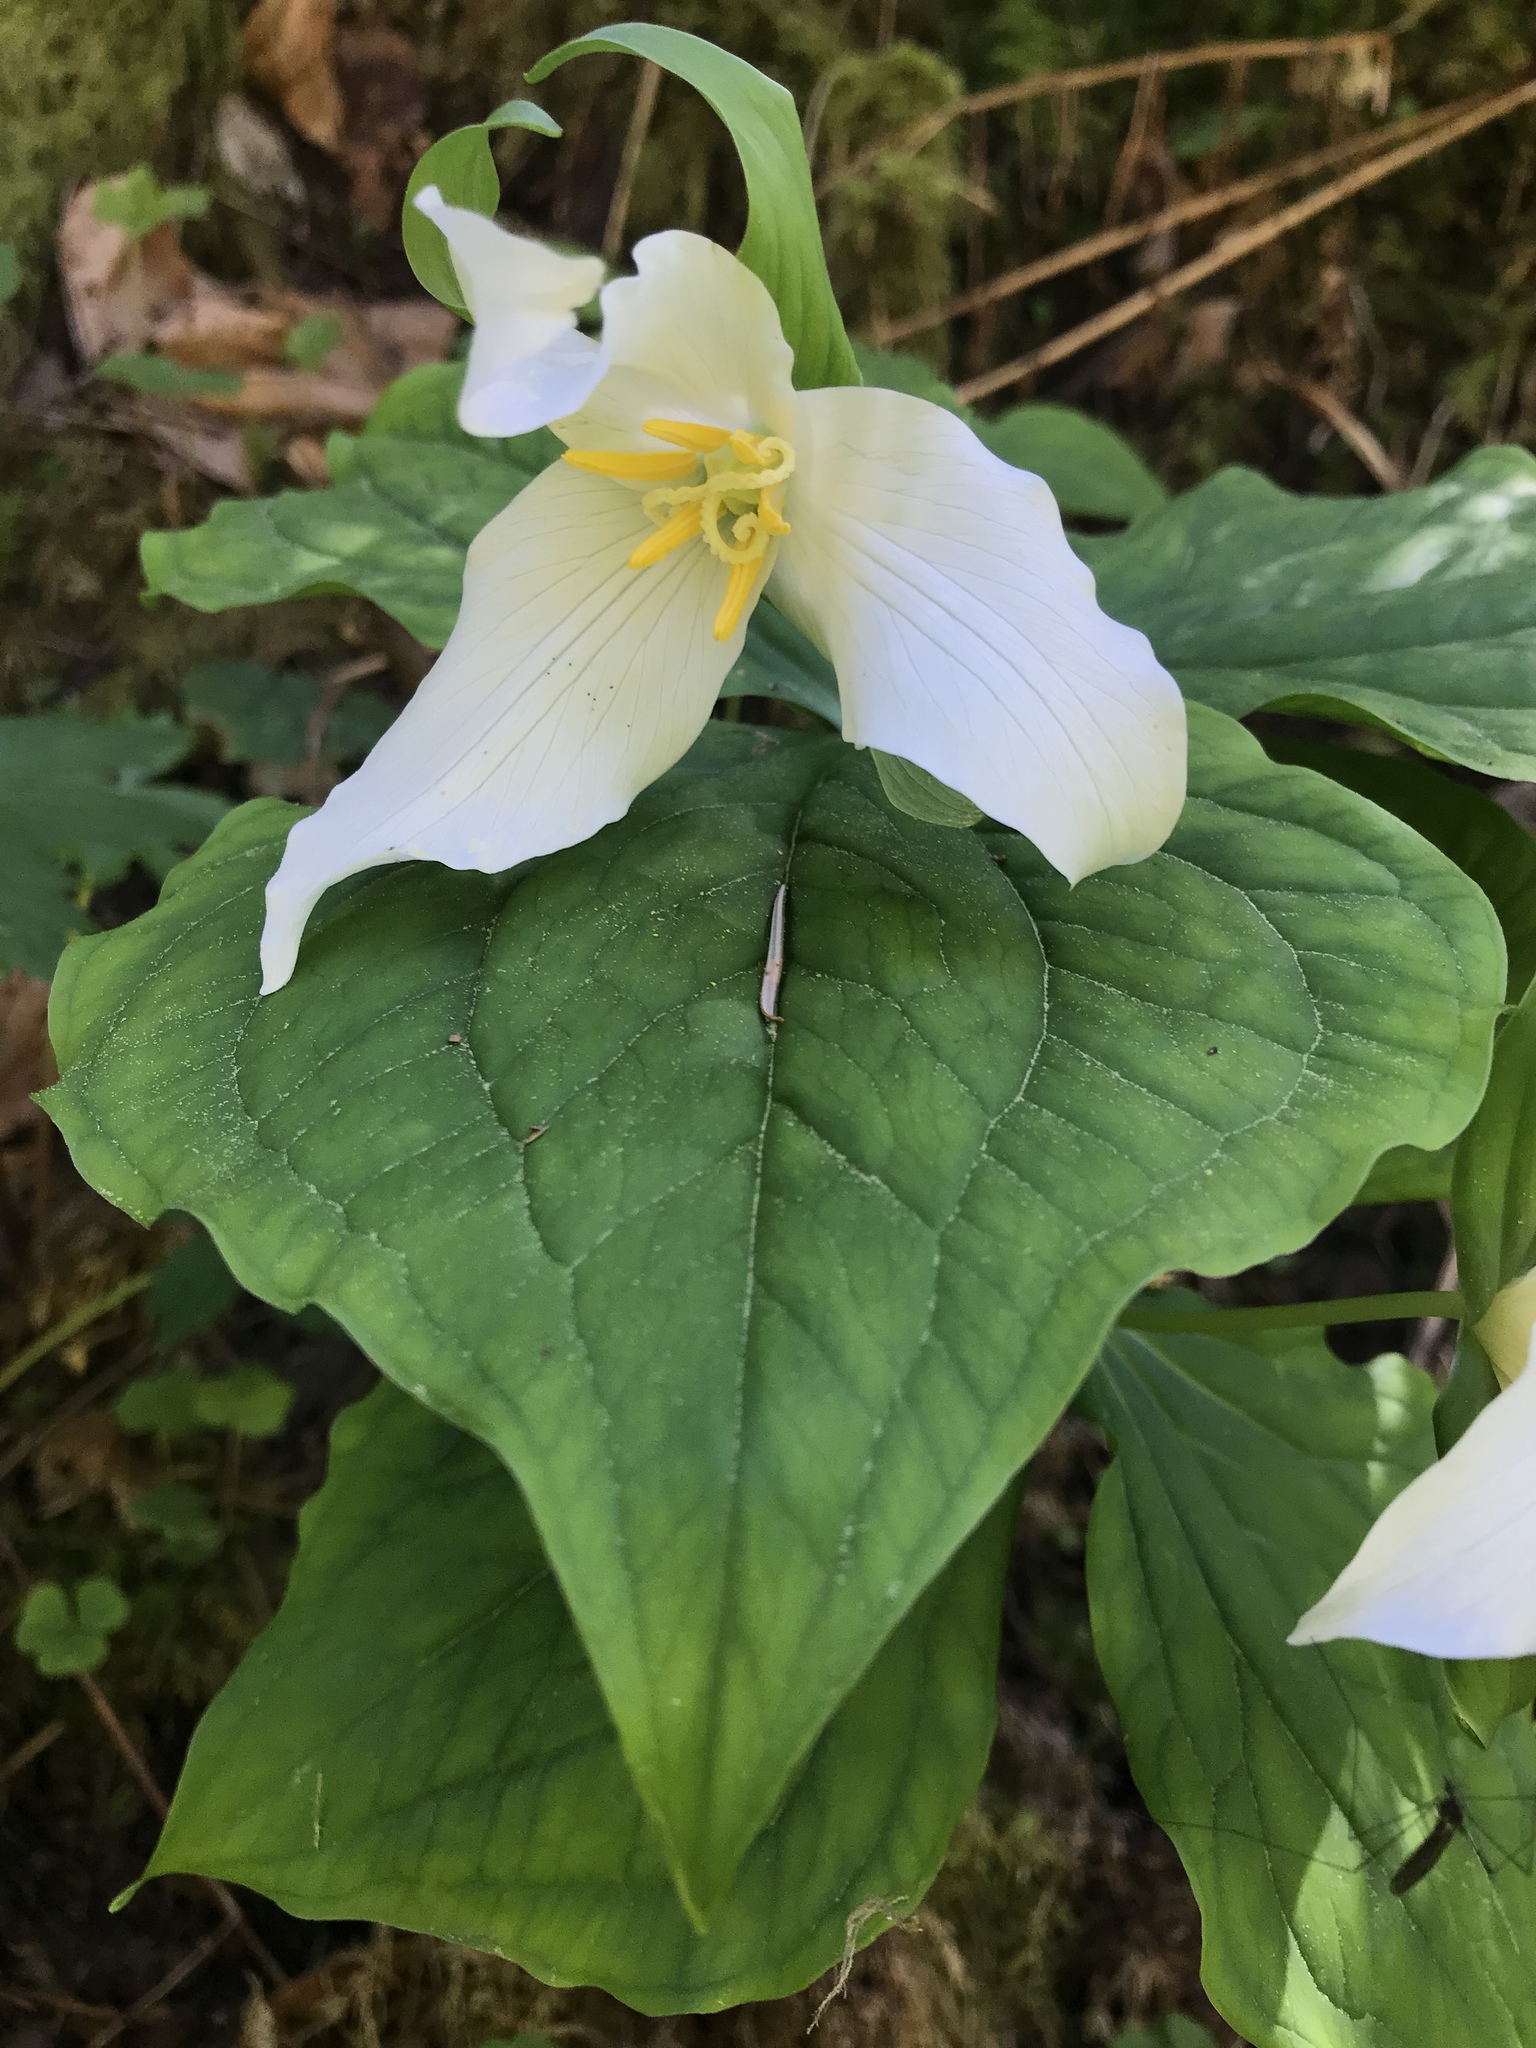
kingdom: Plantae
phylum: Tracheophyta
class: Liliopsida
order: Liliales
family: Melanthiaceae
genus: Trillium
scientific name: Trillium ovatum
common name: Pacific trillium
